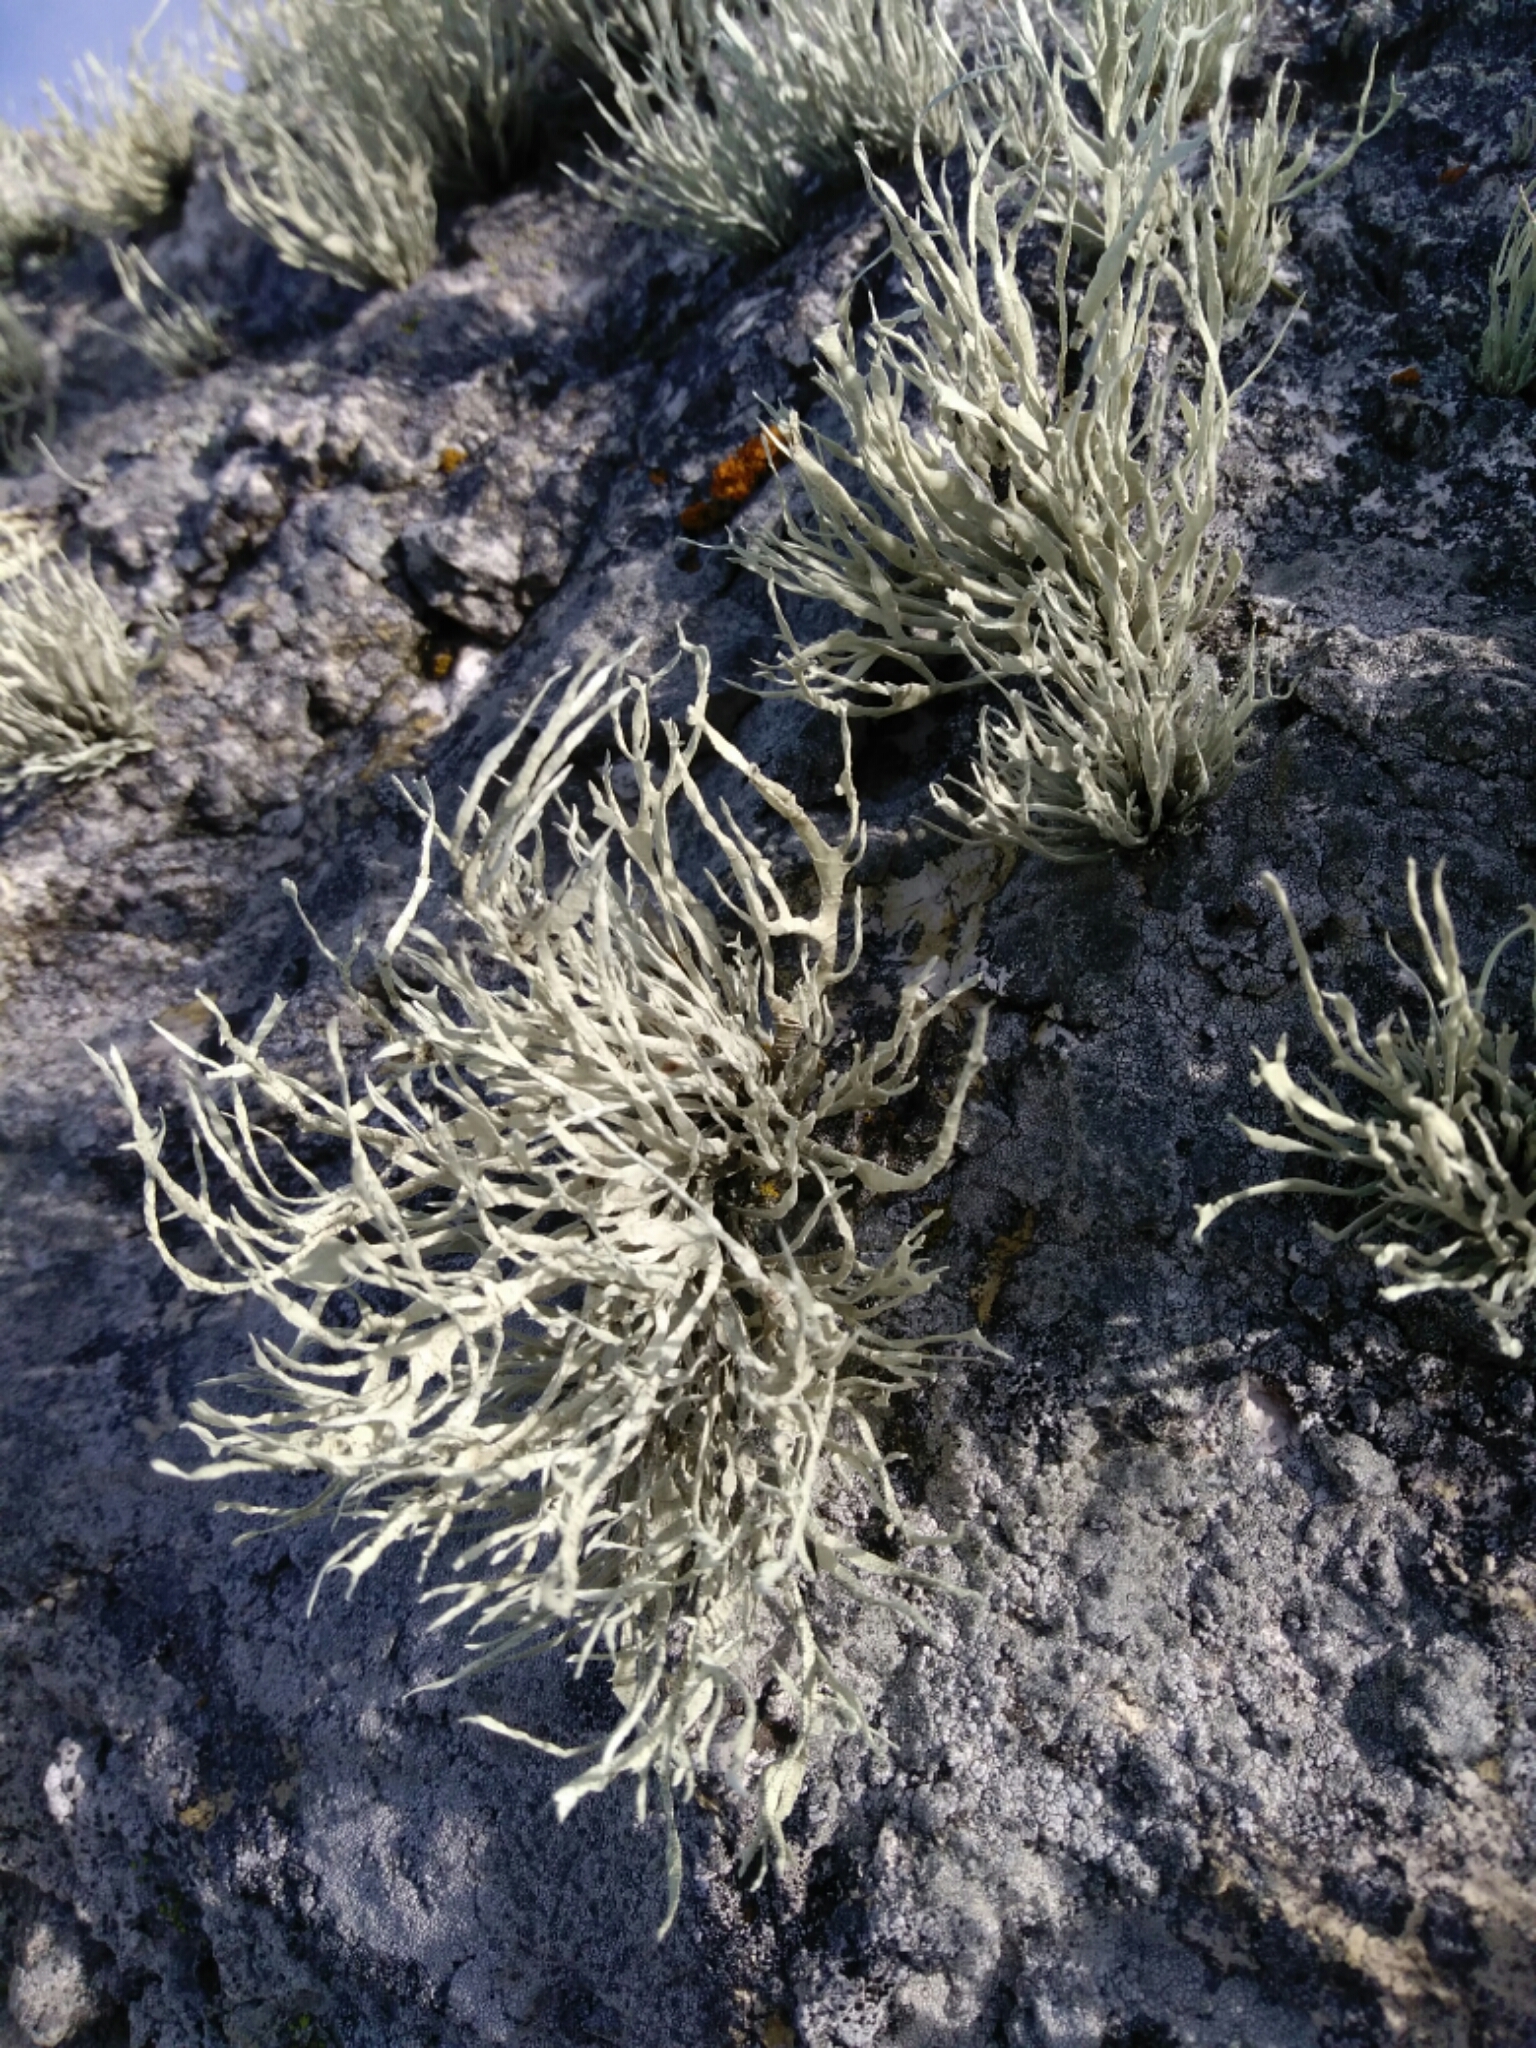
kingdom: Fungi
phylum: Ascomycota
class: Lecanoromycetes
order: Lecanorales
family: Ramalinaceae
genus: Niebla
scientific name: Niebla homalea
